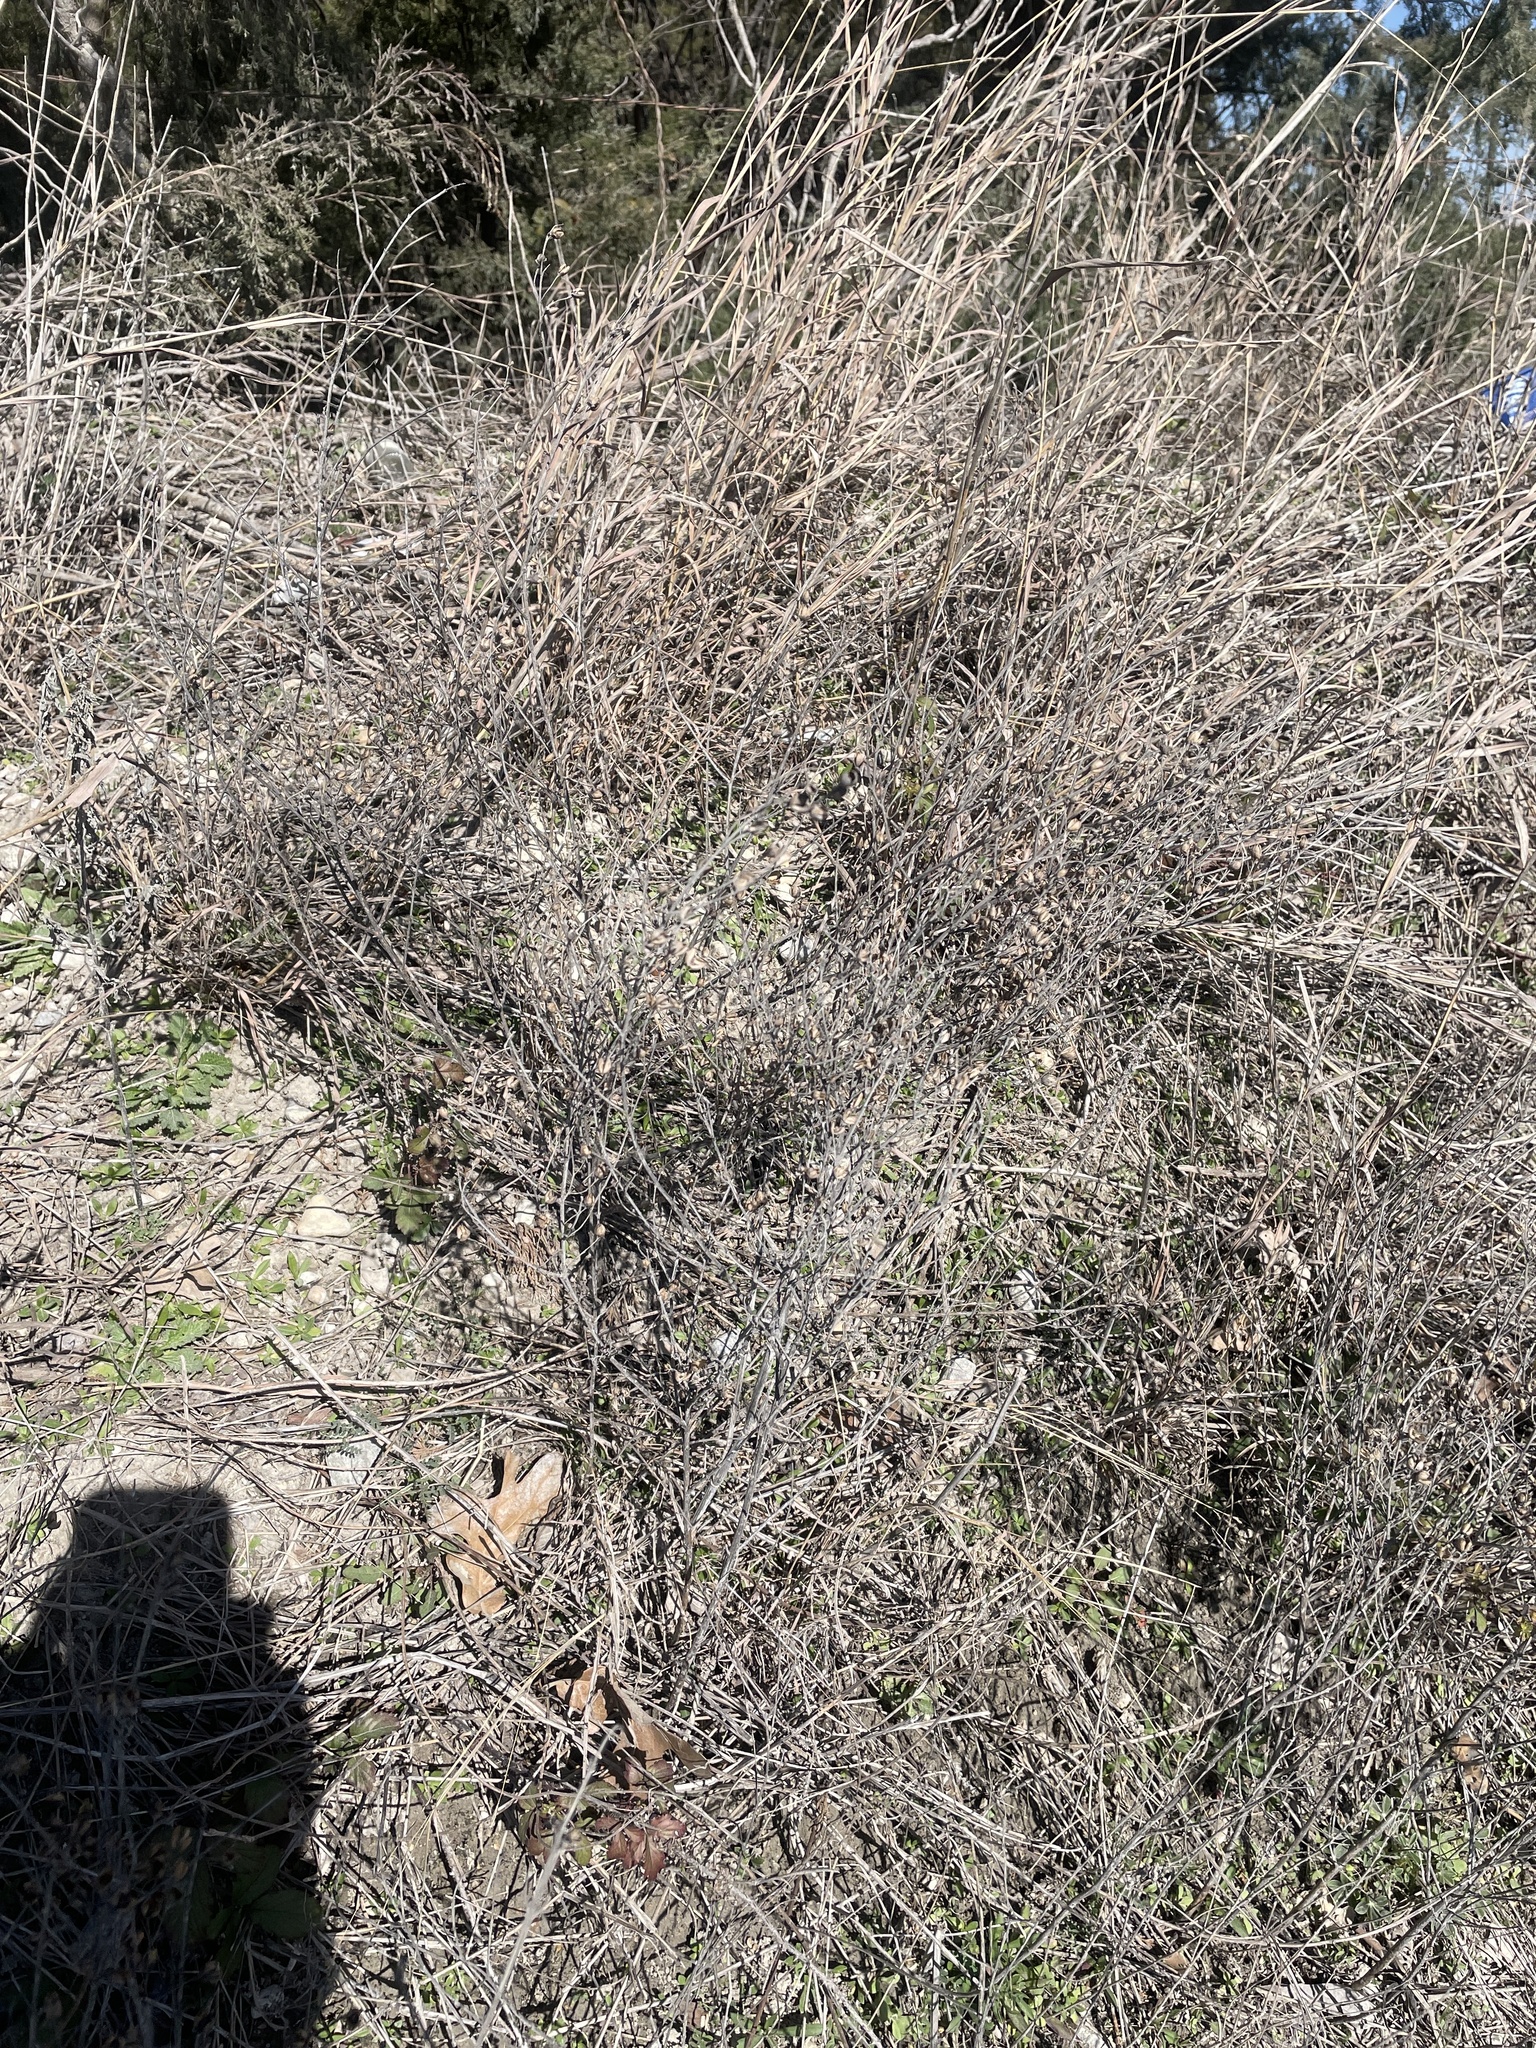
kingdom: Plantae
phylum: Tracheophyta
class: Magnoliopsida
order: Lamiales
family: Orobanchaceae
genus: Agalinis
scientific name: Agalinis heterophylla
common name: Prairie agalinis
